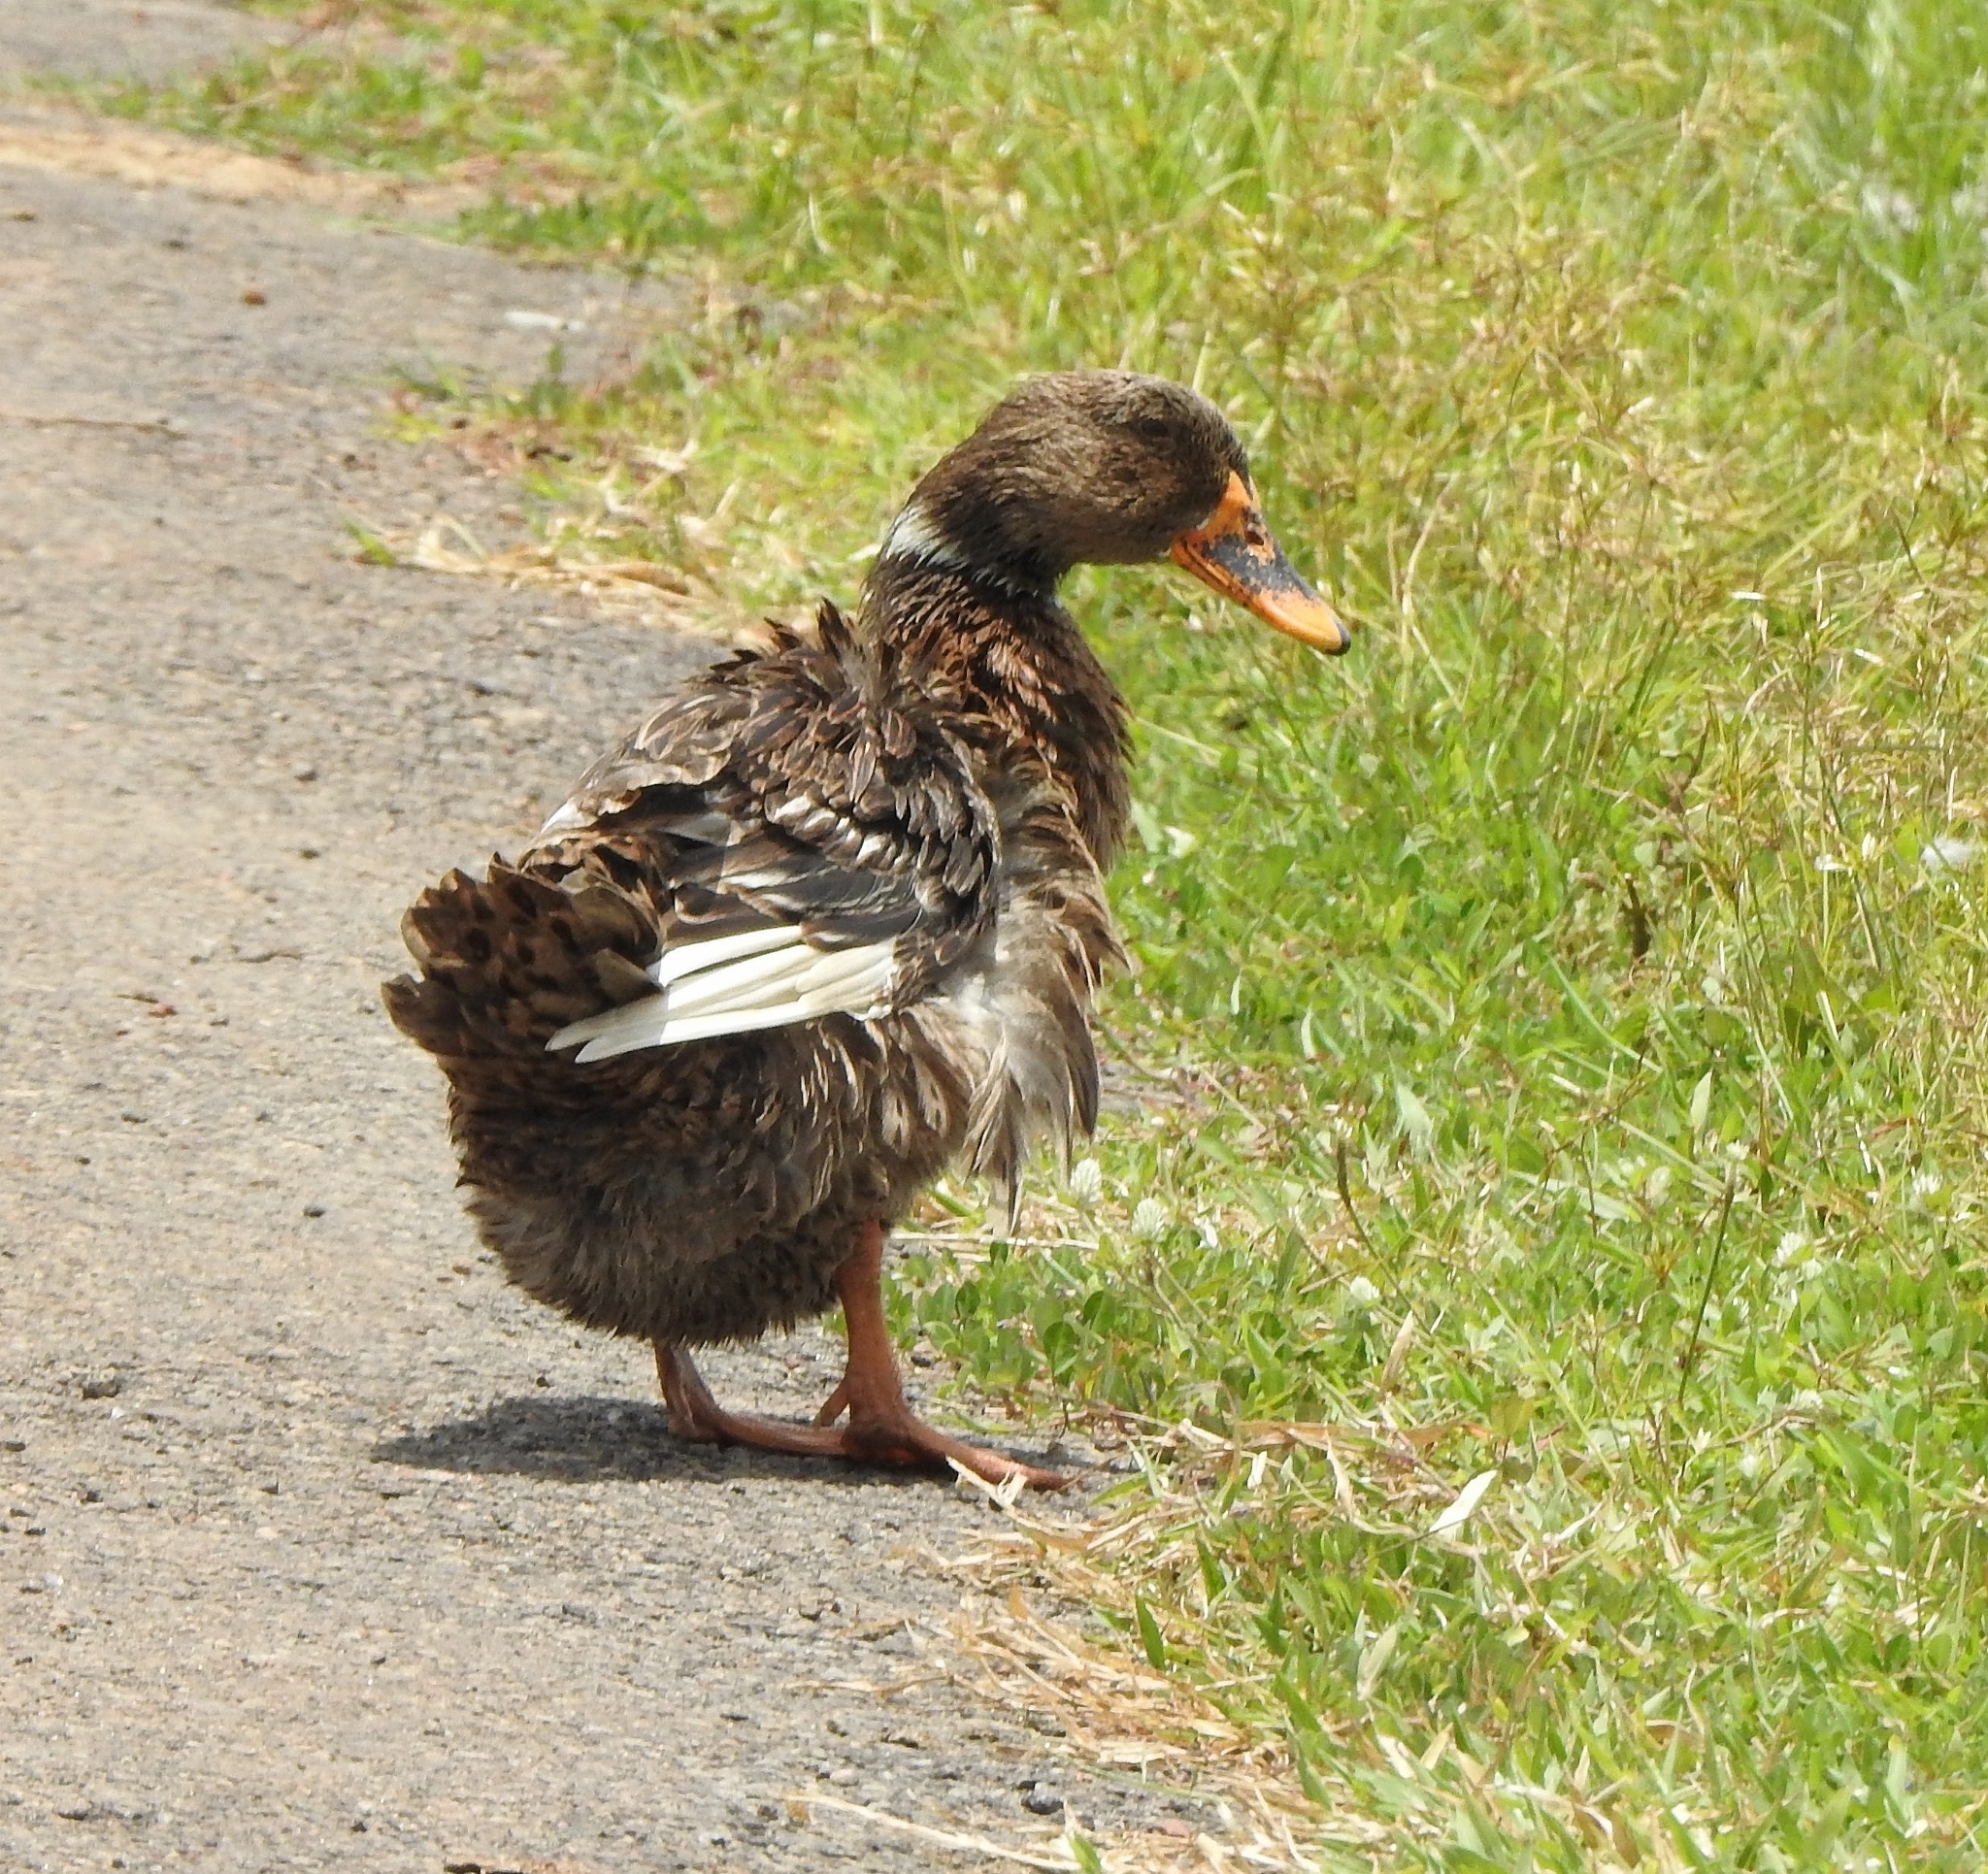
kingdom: Animalia
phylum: Chordata
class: Aves
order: Anseriformes
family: Anatidae
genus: Anas
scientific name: Anas platyrhynchos
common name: Mallard
